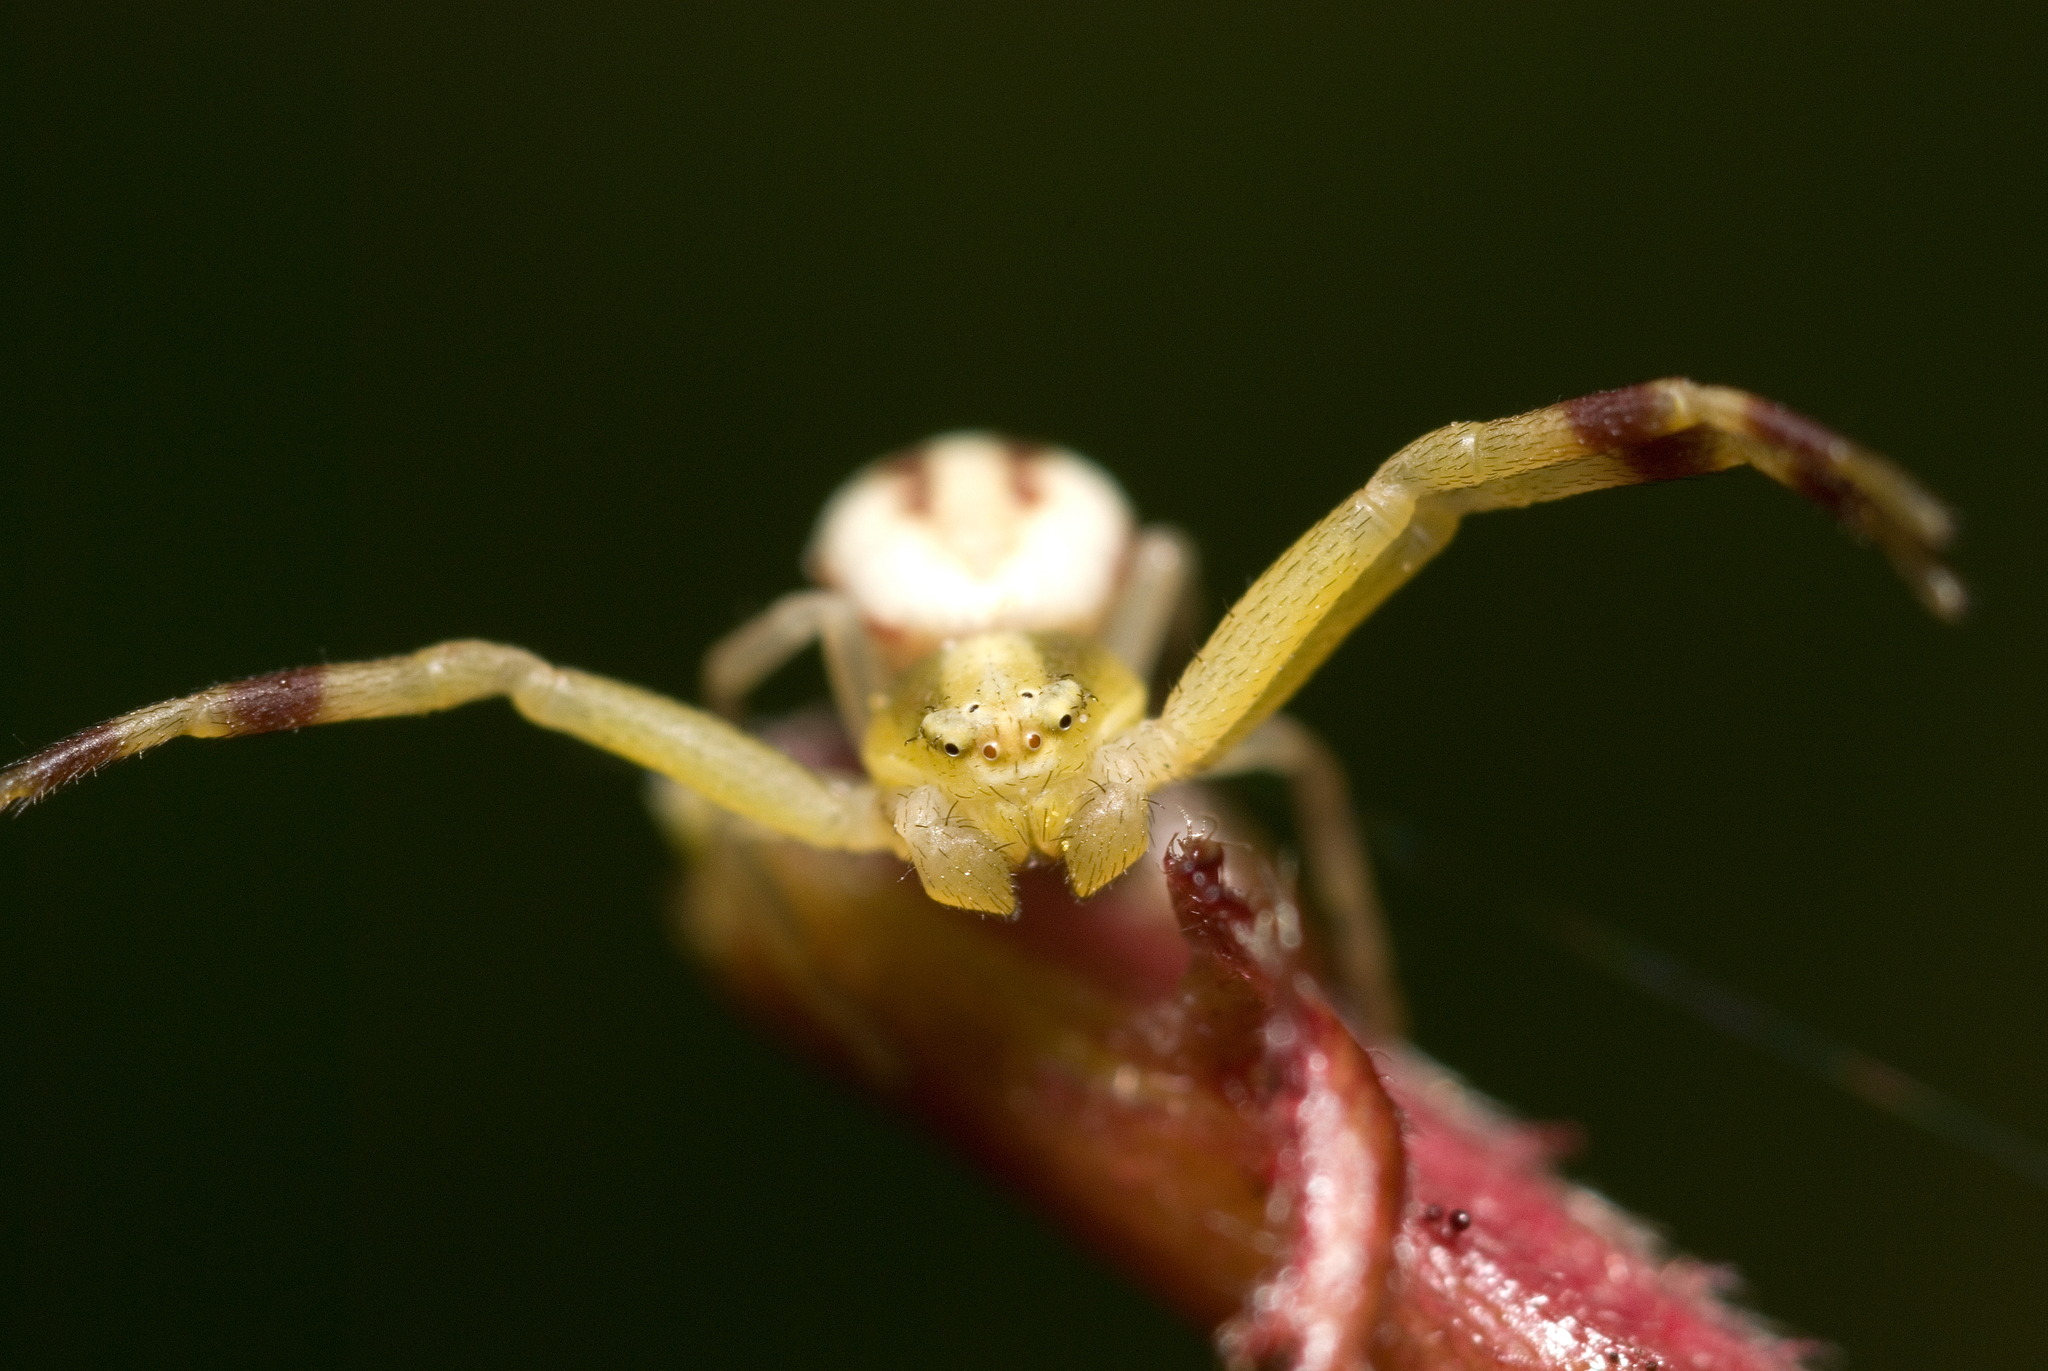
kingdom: Animalia
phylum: Arthropoda
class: Arachnida
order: Araneae
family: Thomisidae
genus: Misumena
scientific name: Misumena vatia
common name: Goldenrod crab spider
